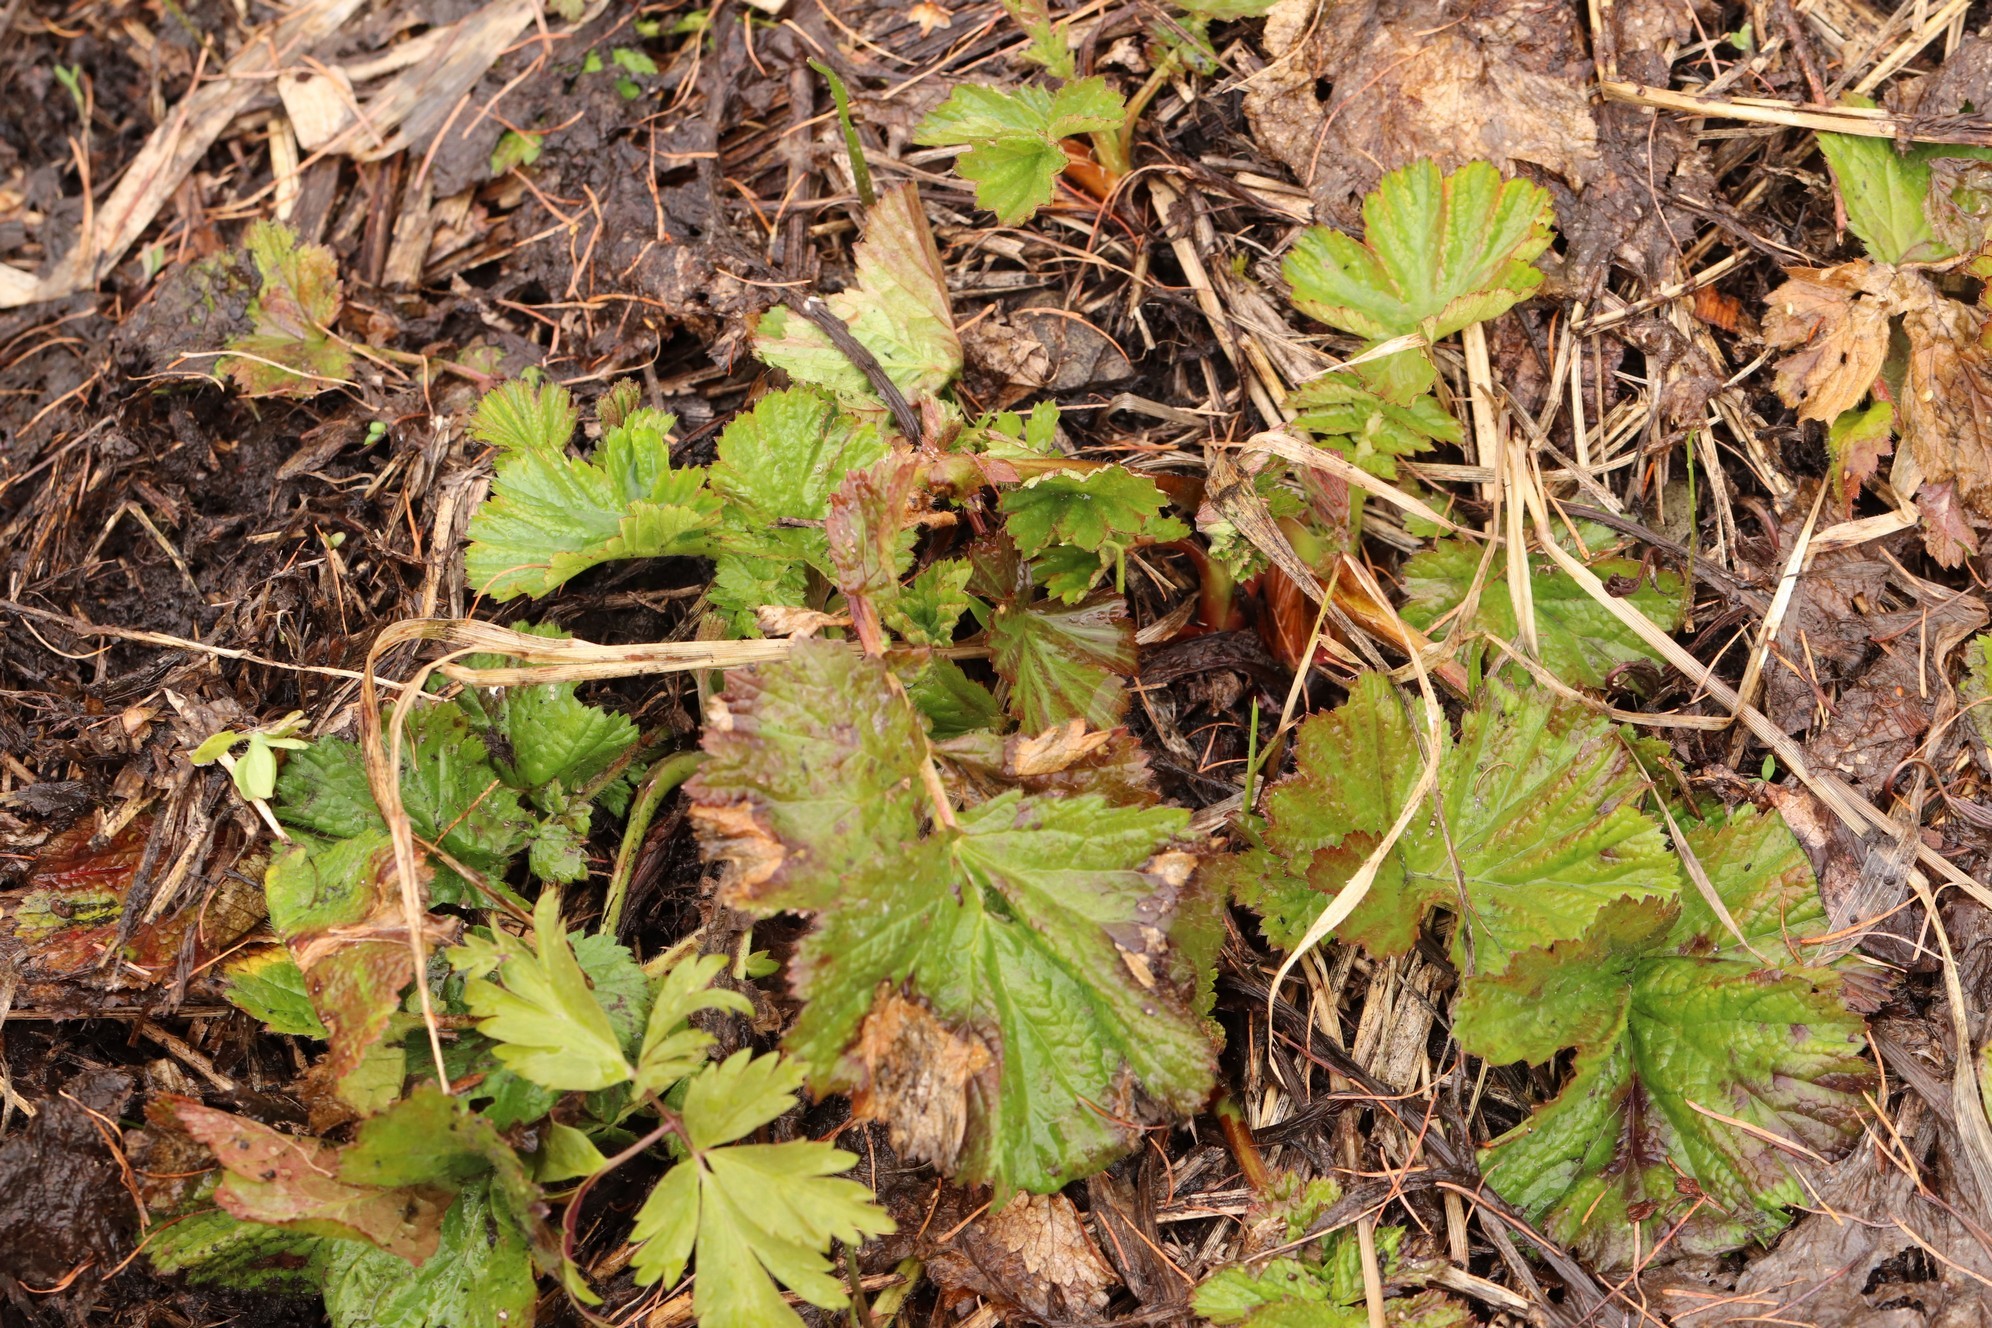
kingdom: Plantae
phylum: Tracheophyta
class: Magnoliopsida
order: Rosales
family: Rosaceae
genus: Geum
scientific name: Geum aleppicum
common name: Yellow avens
